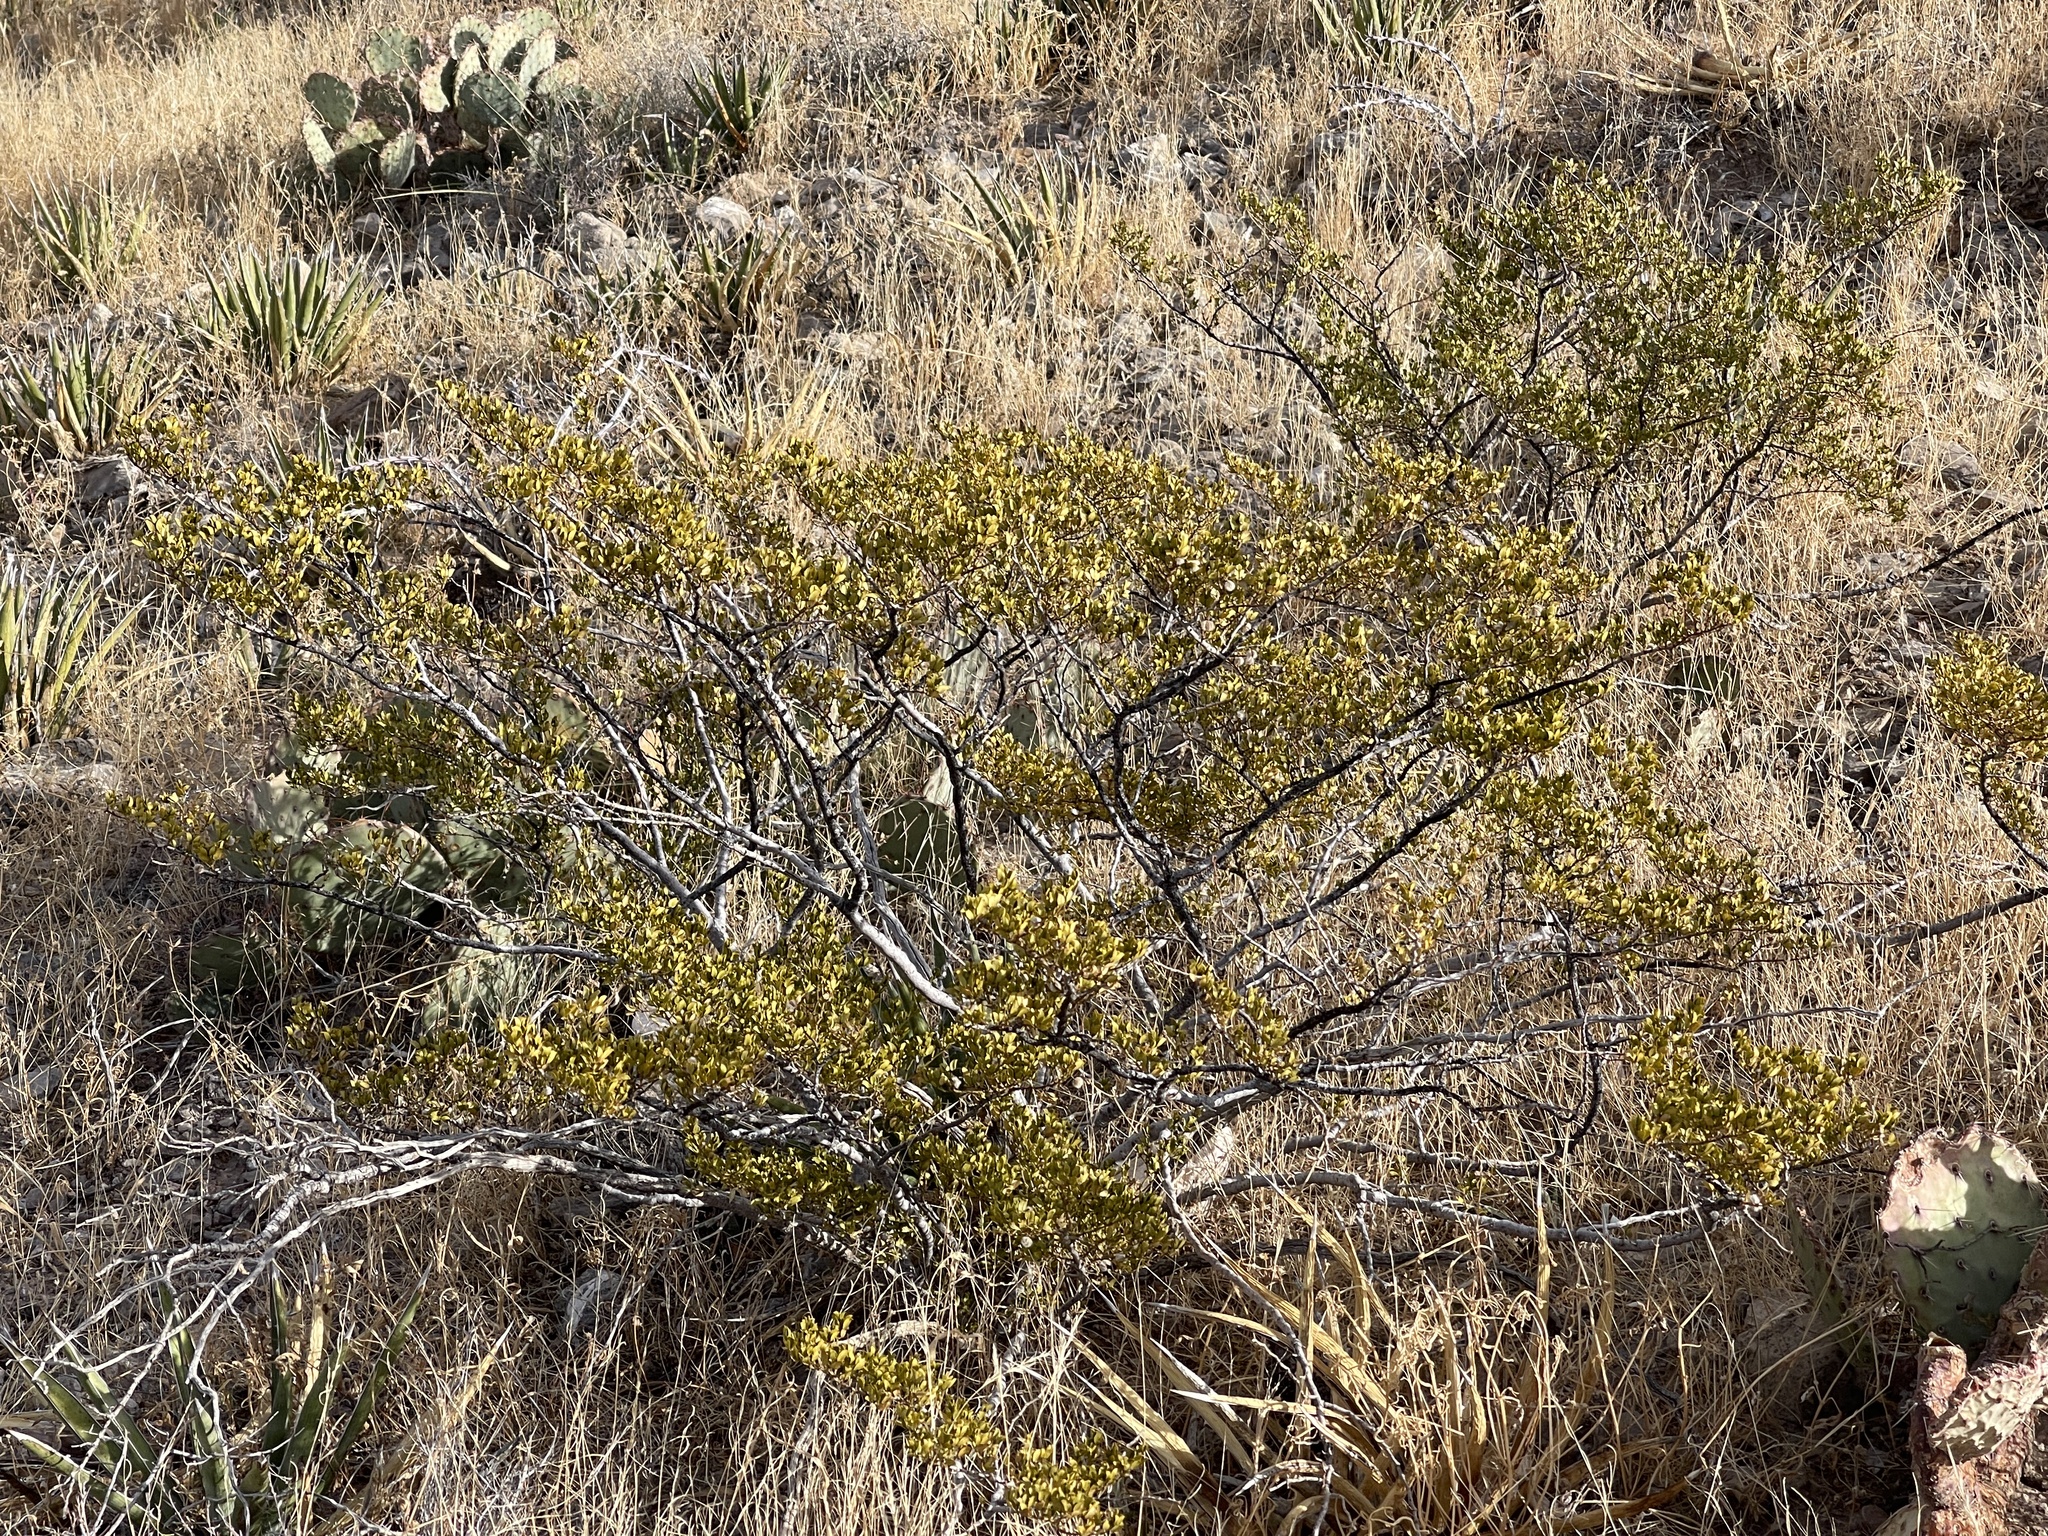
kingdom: Plantae
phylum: Tracheophyta
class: Magnoliopsida
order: Zygophyllales
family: Zygophyllaceae
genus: Larrea
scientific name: Larrea tridentata
